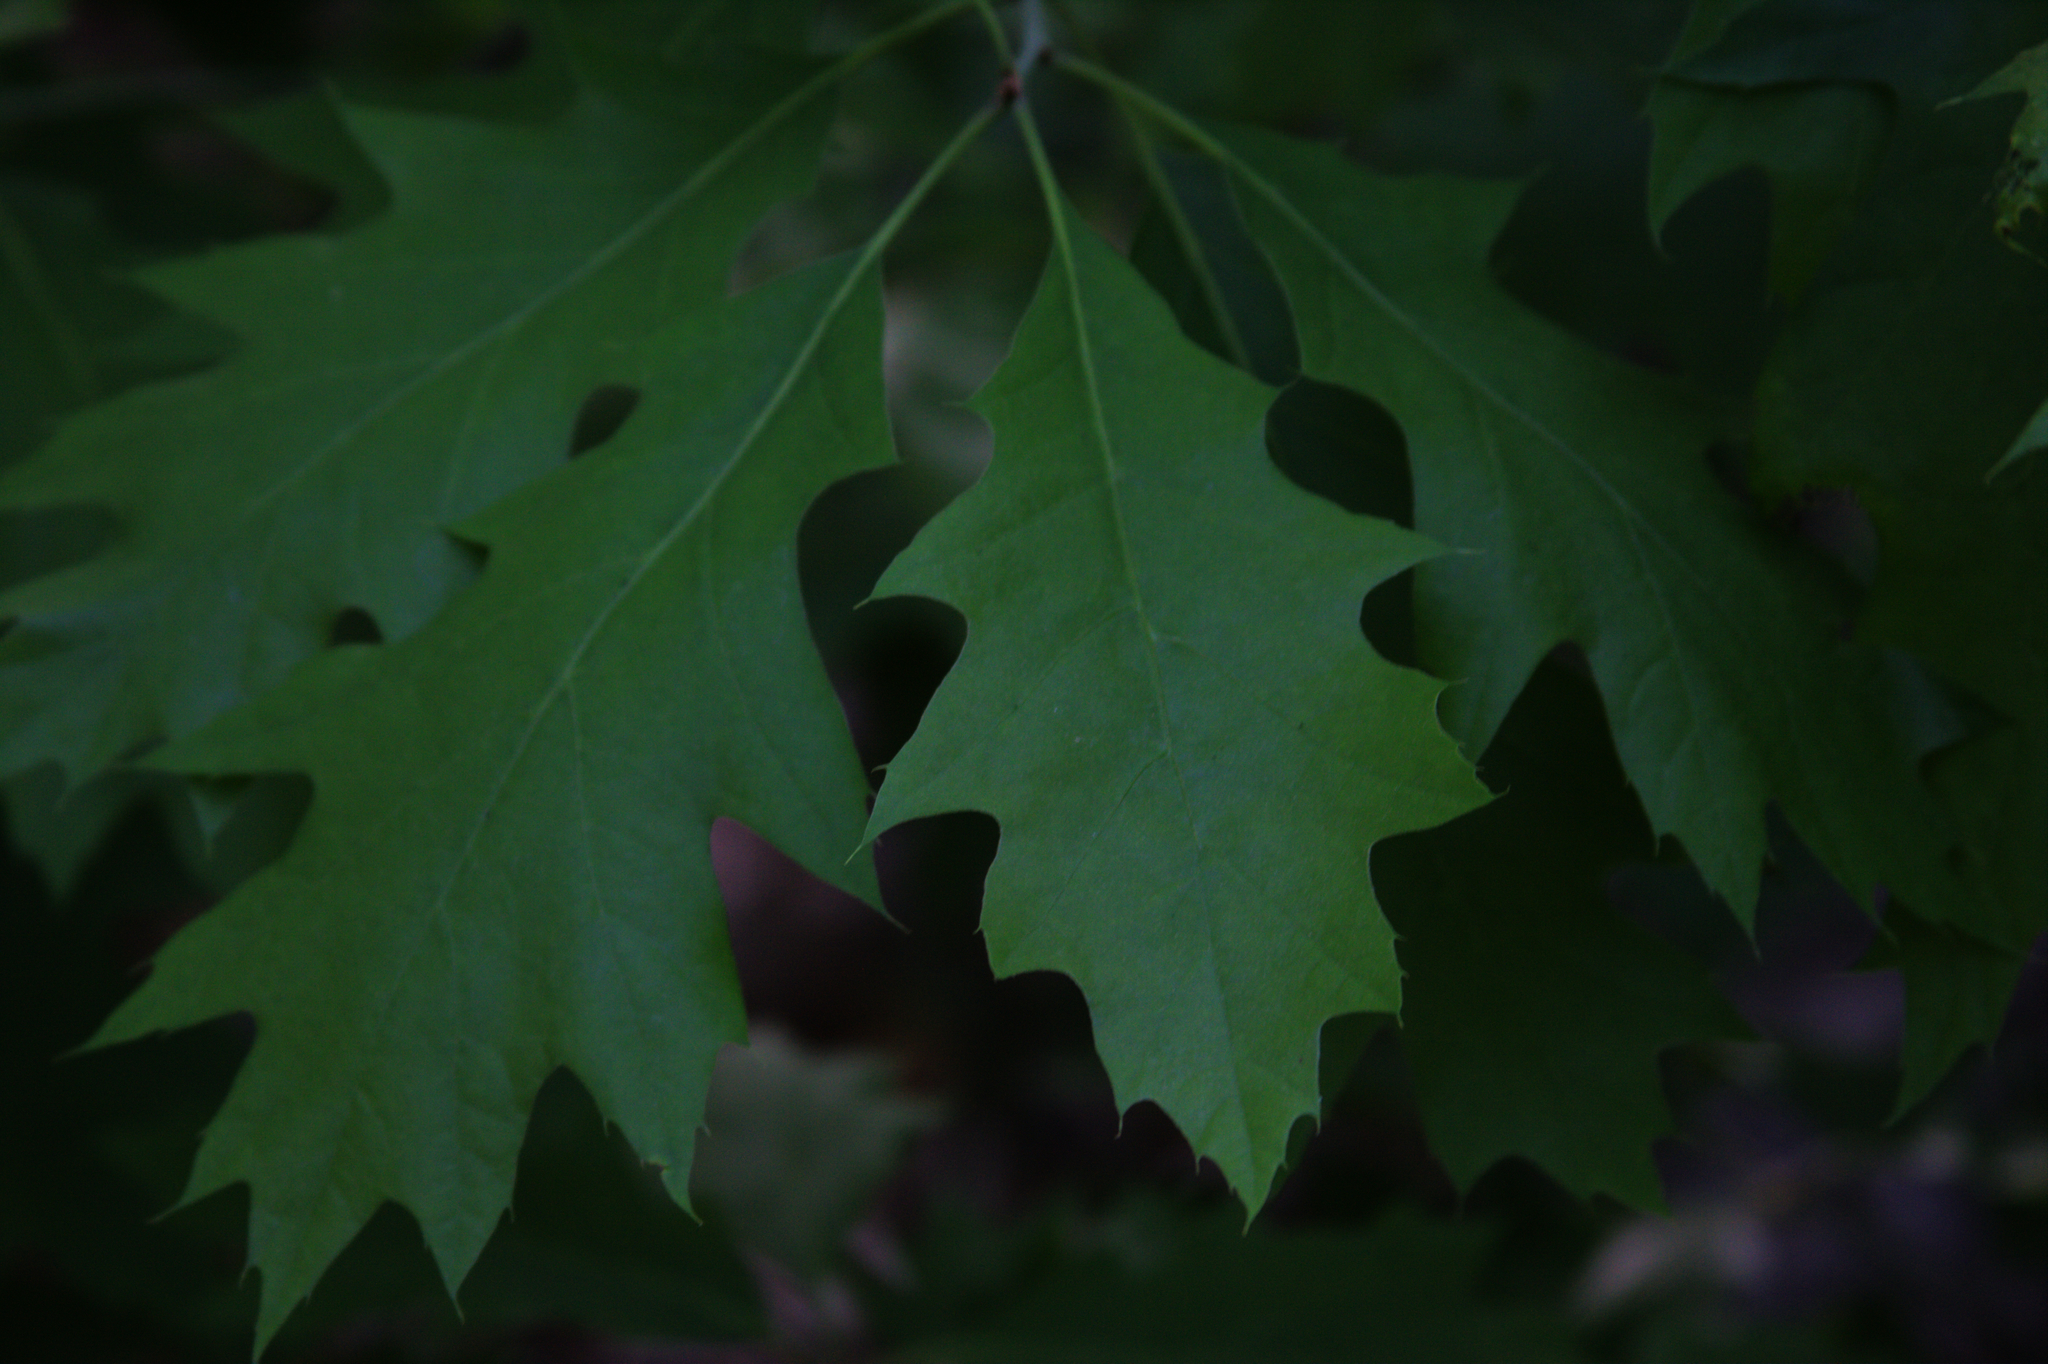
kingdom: Plantae
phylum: Tracheophyta
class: Magnoliopsida
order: Fagales
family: Fagaceae
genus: Quercus
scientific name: Quercus rubra
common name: Red oak
